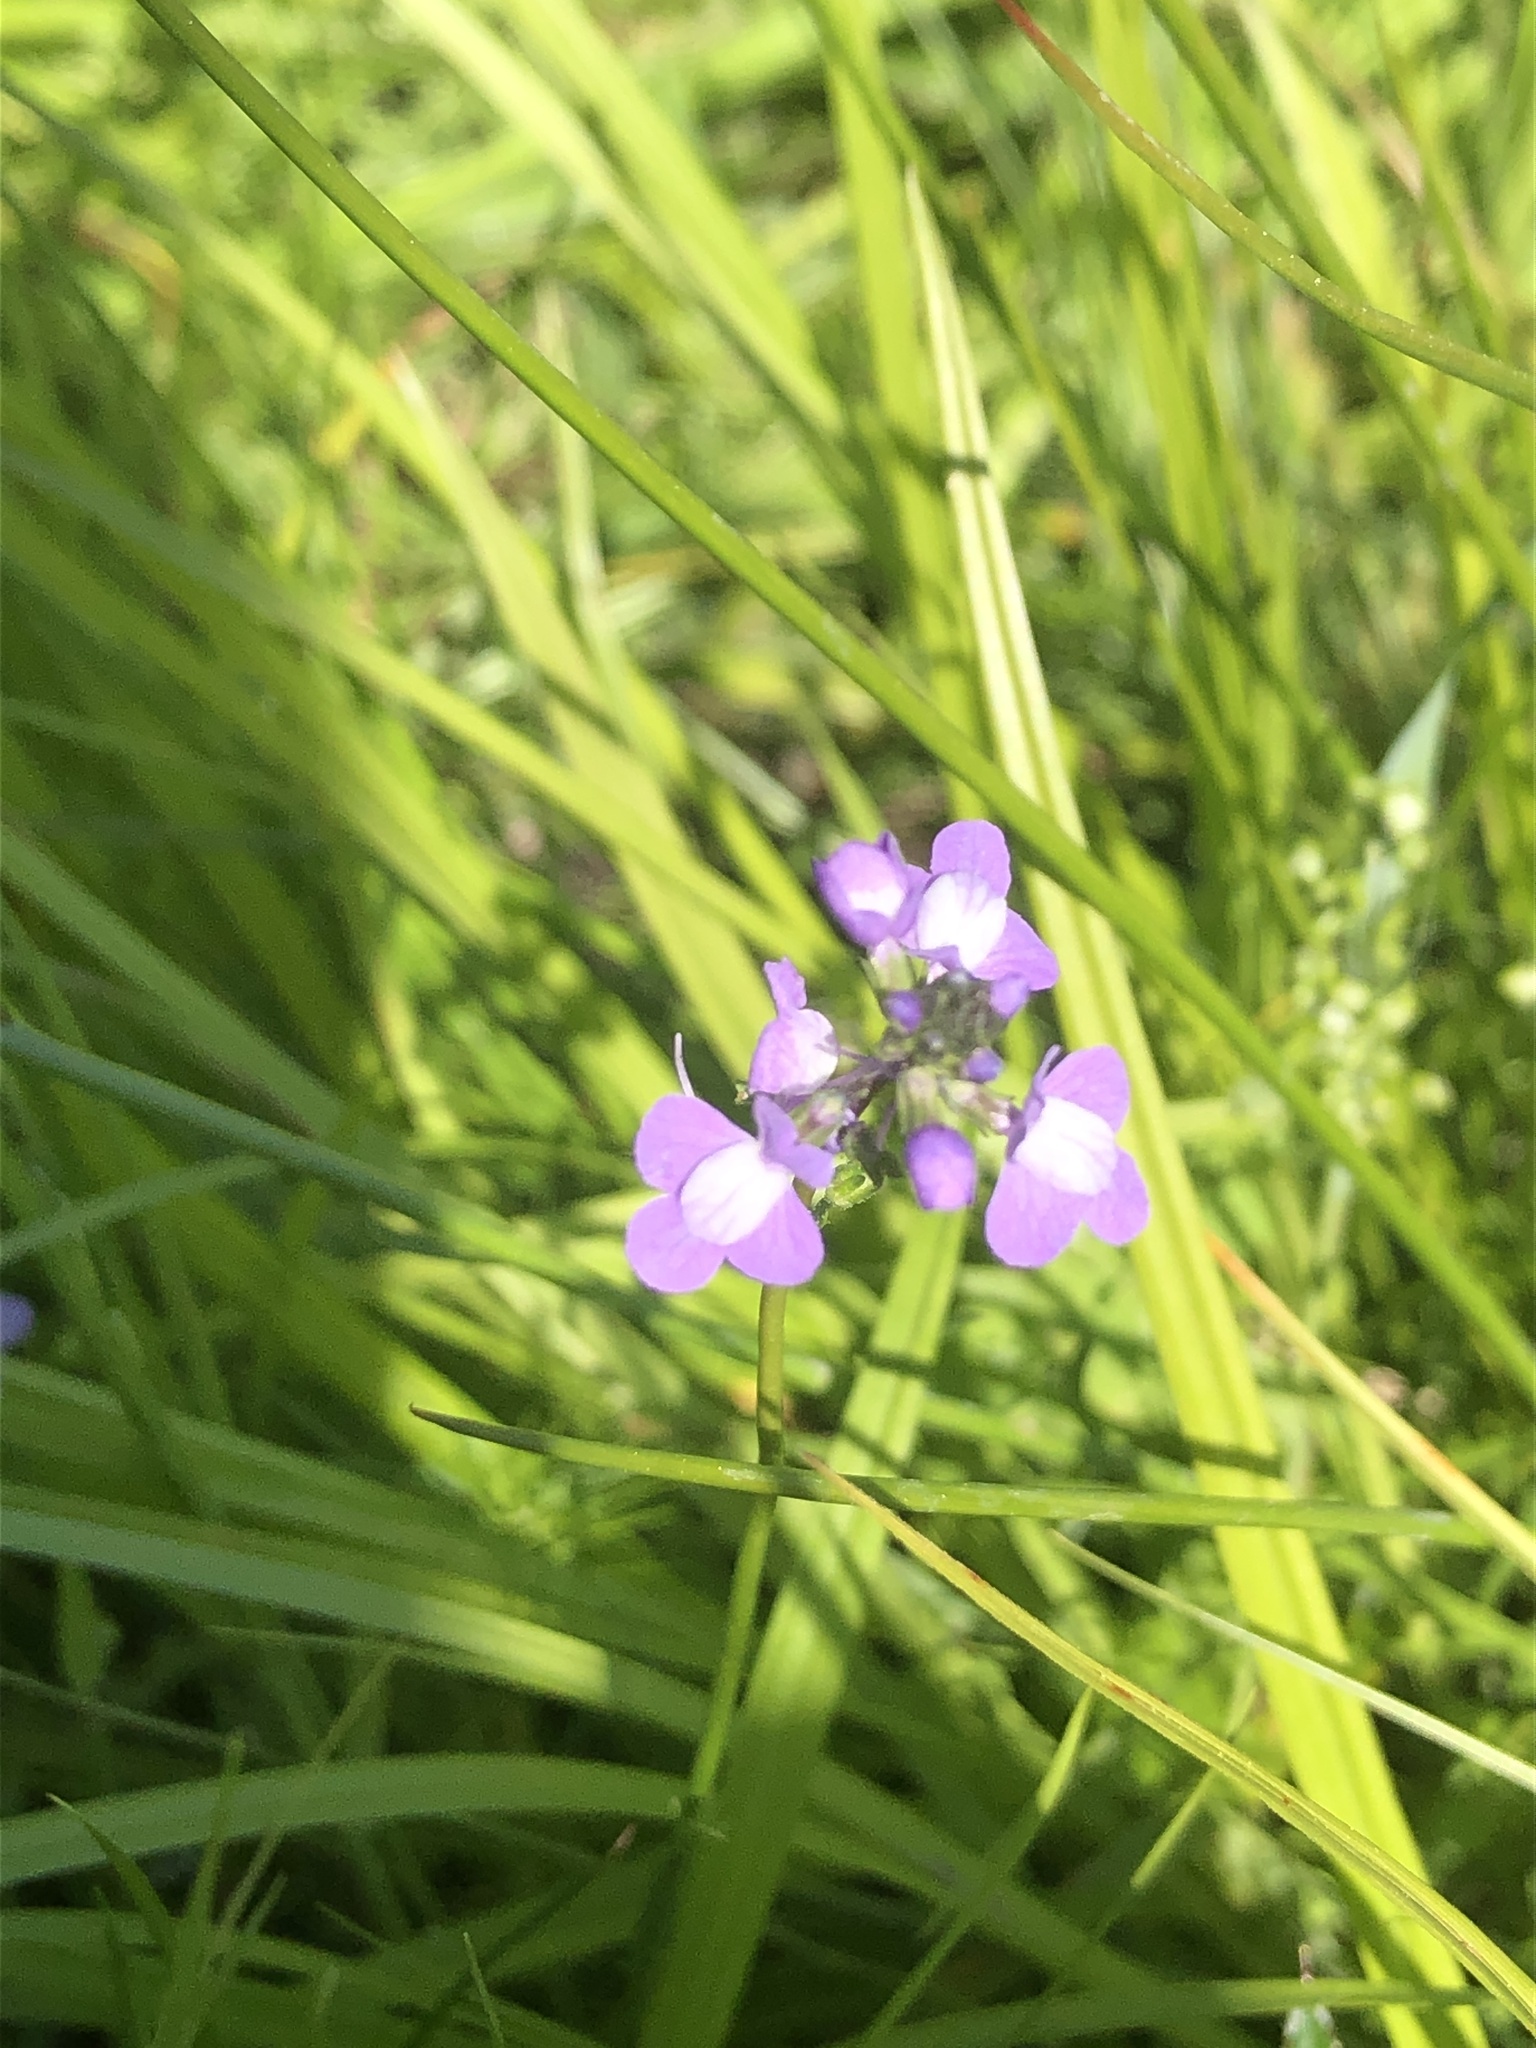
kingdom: Plantae
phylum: Tracheophyta
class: Magnoliopsida
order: Lamiales
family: Plantaginaceae
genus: Nuttallanthus
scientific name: Nuttallanthus canadensis
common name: Blue toadflax
